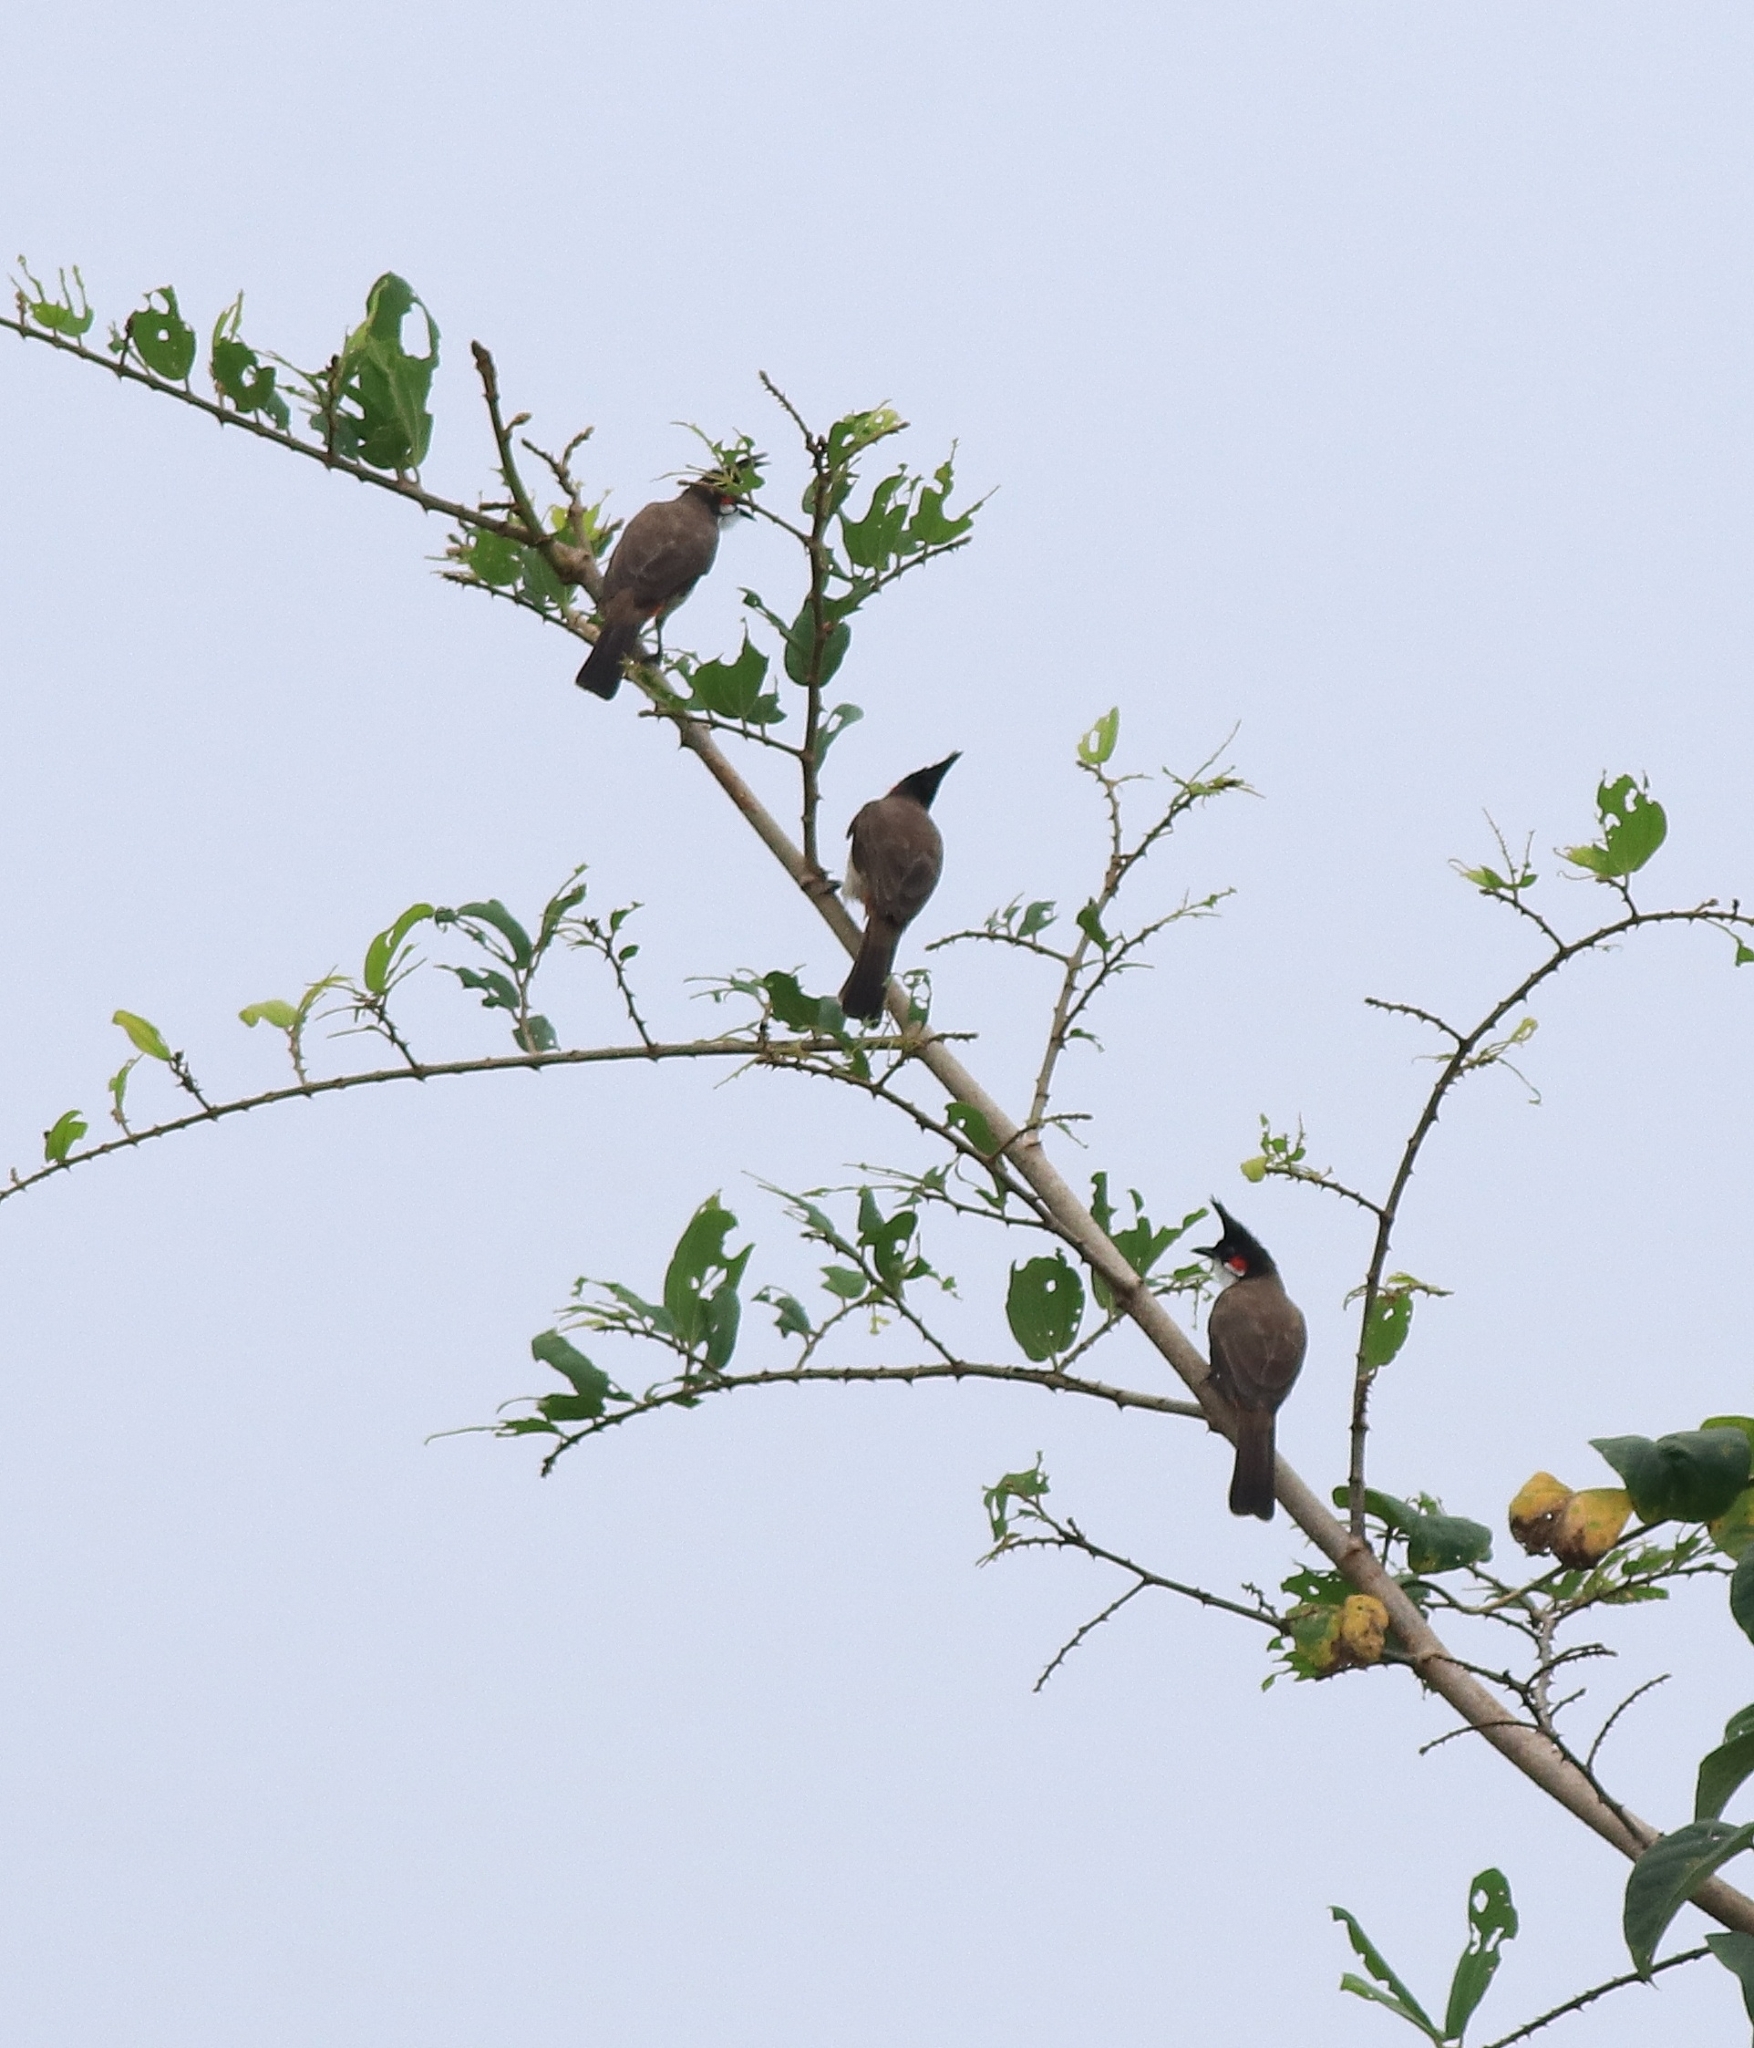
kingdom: Animalia
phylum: Chordata
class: Aves
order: Passeriformes
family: Pycnonotidae
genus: Pycnonotus
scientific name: Pycnonotus jocosus
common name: Red-whiskered bulbul
